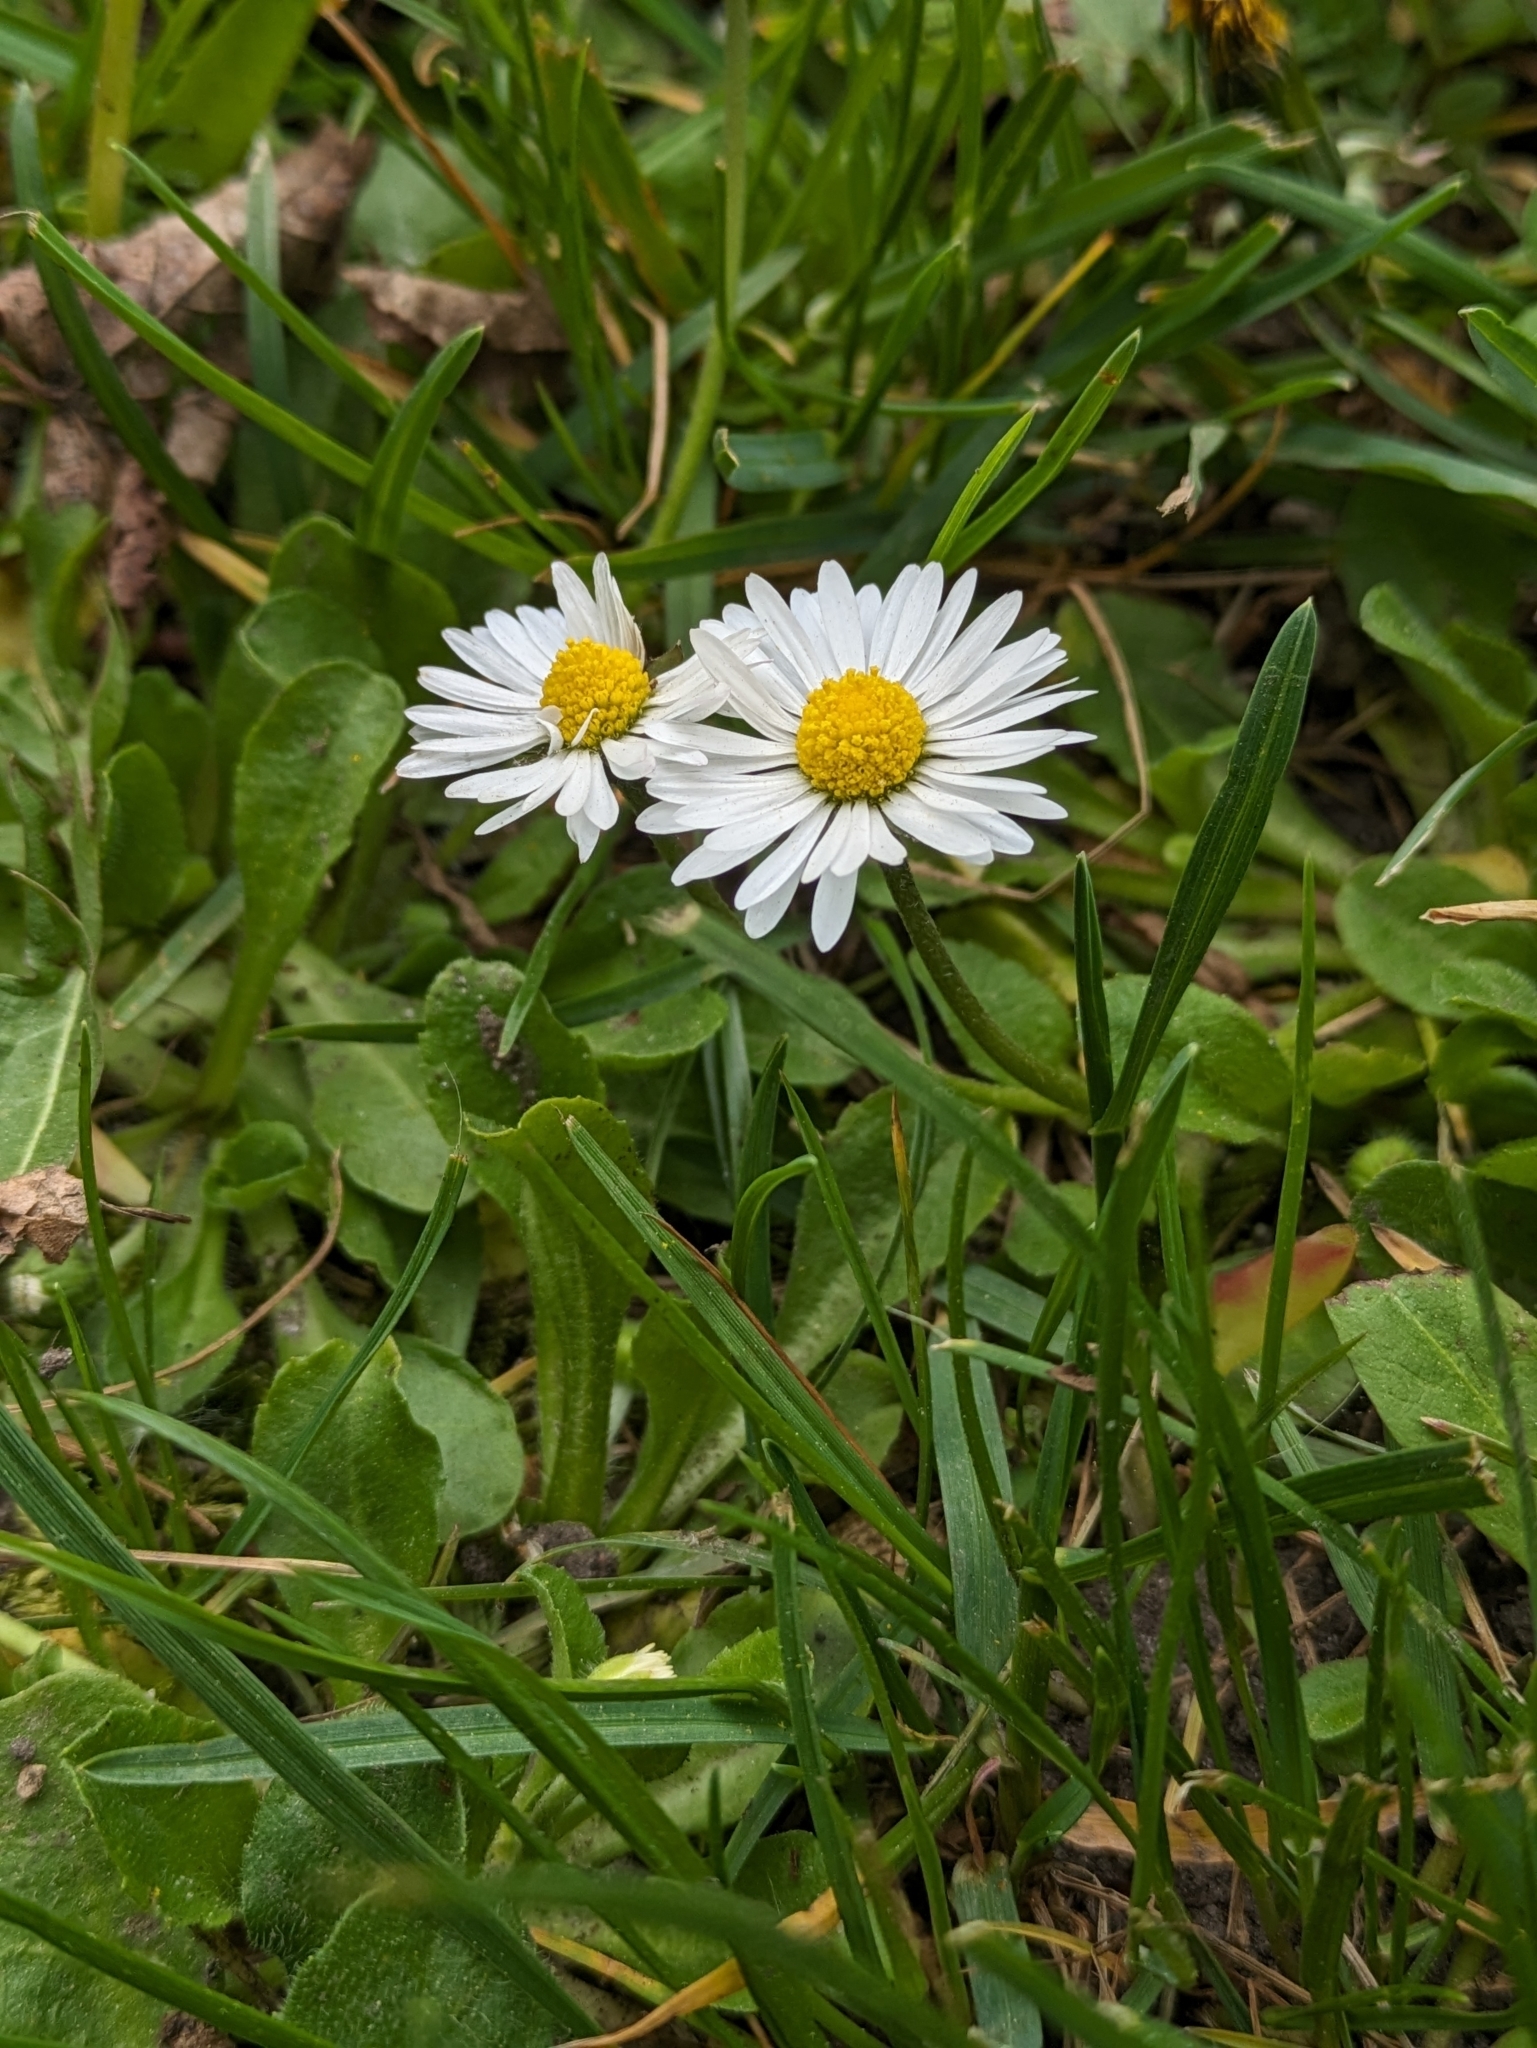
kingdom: Plantae
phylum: Tracheophyta
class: Magnoliopsida
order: Asterales
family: Asteraceae
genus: Bellis
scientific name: Bellis perennis
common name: Lawndaisy
